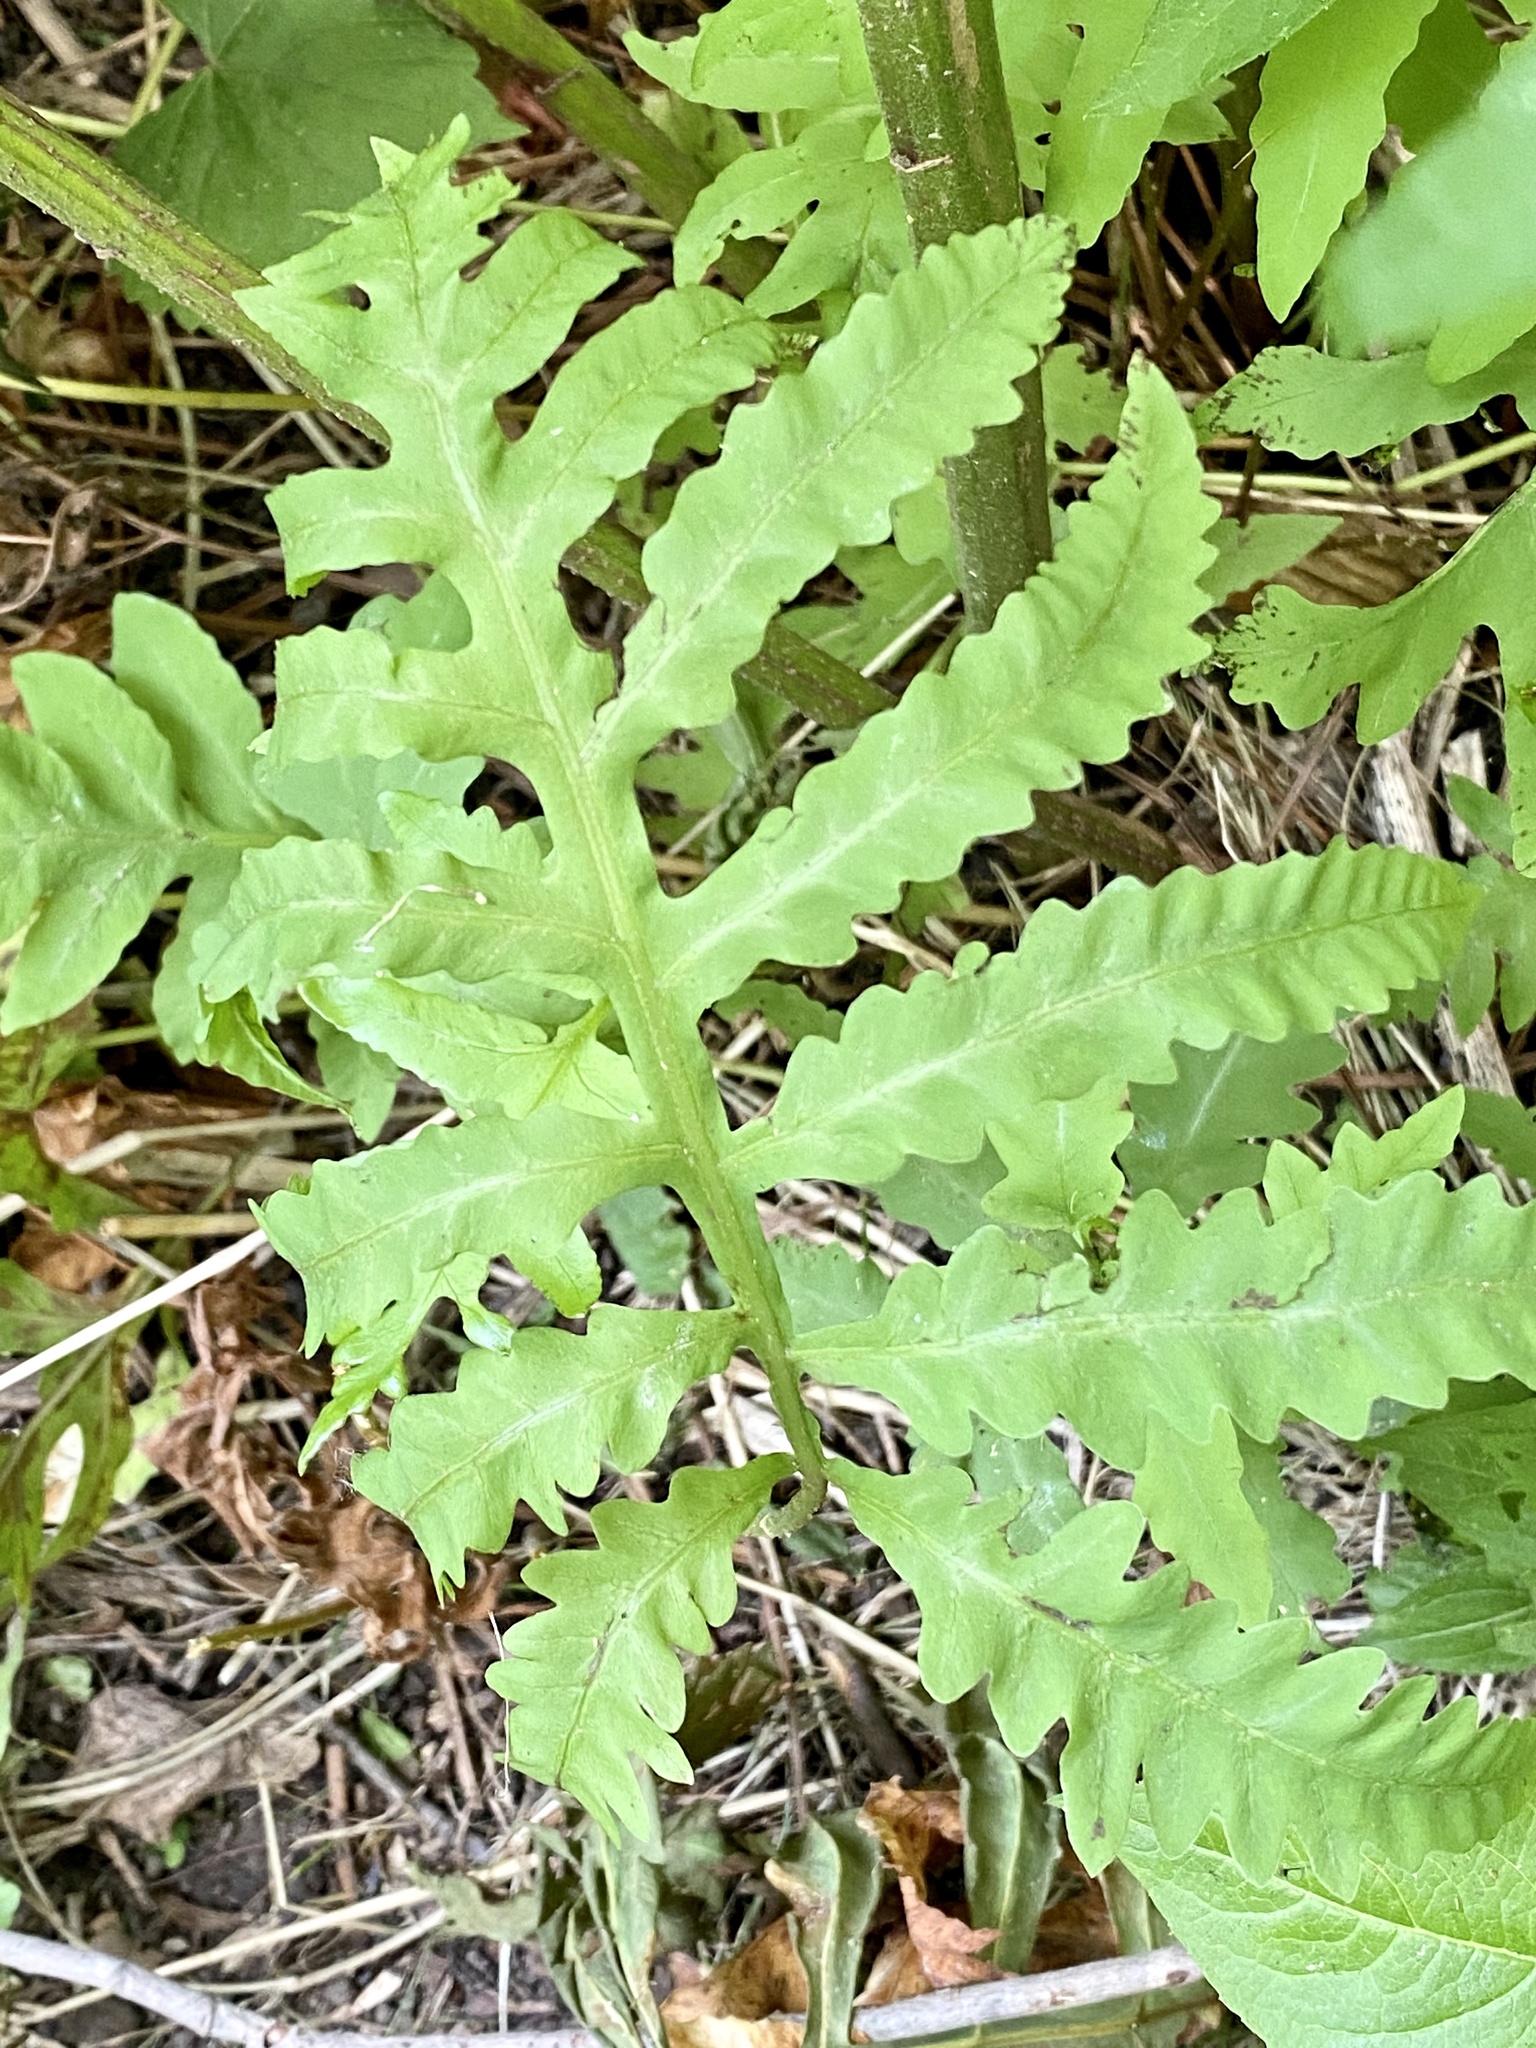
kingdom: Plantae
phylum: Tracheophyta
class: Polypodiopsida
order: Polypodiales
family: Onocleaceae
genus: Onoclea
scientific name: Onoclea sensibilis
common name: Sensitive fern
